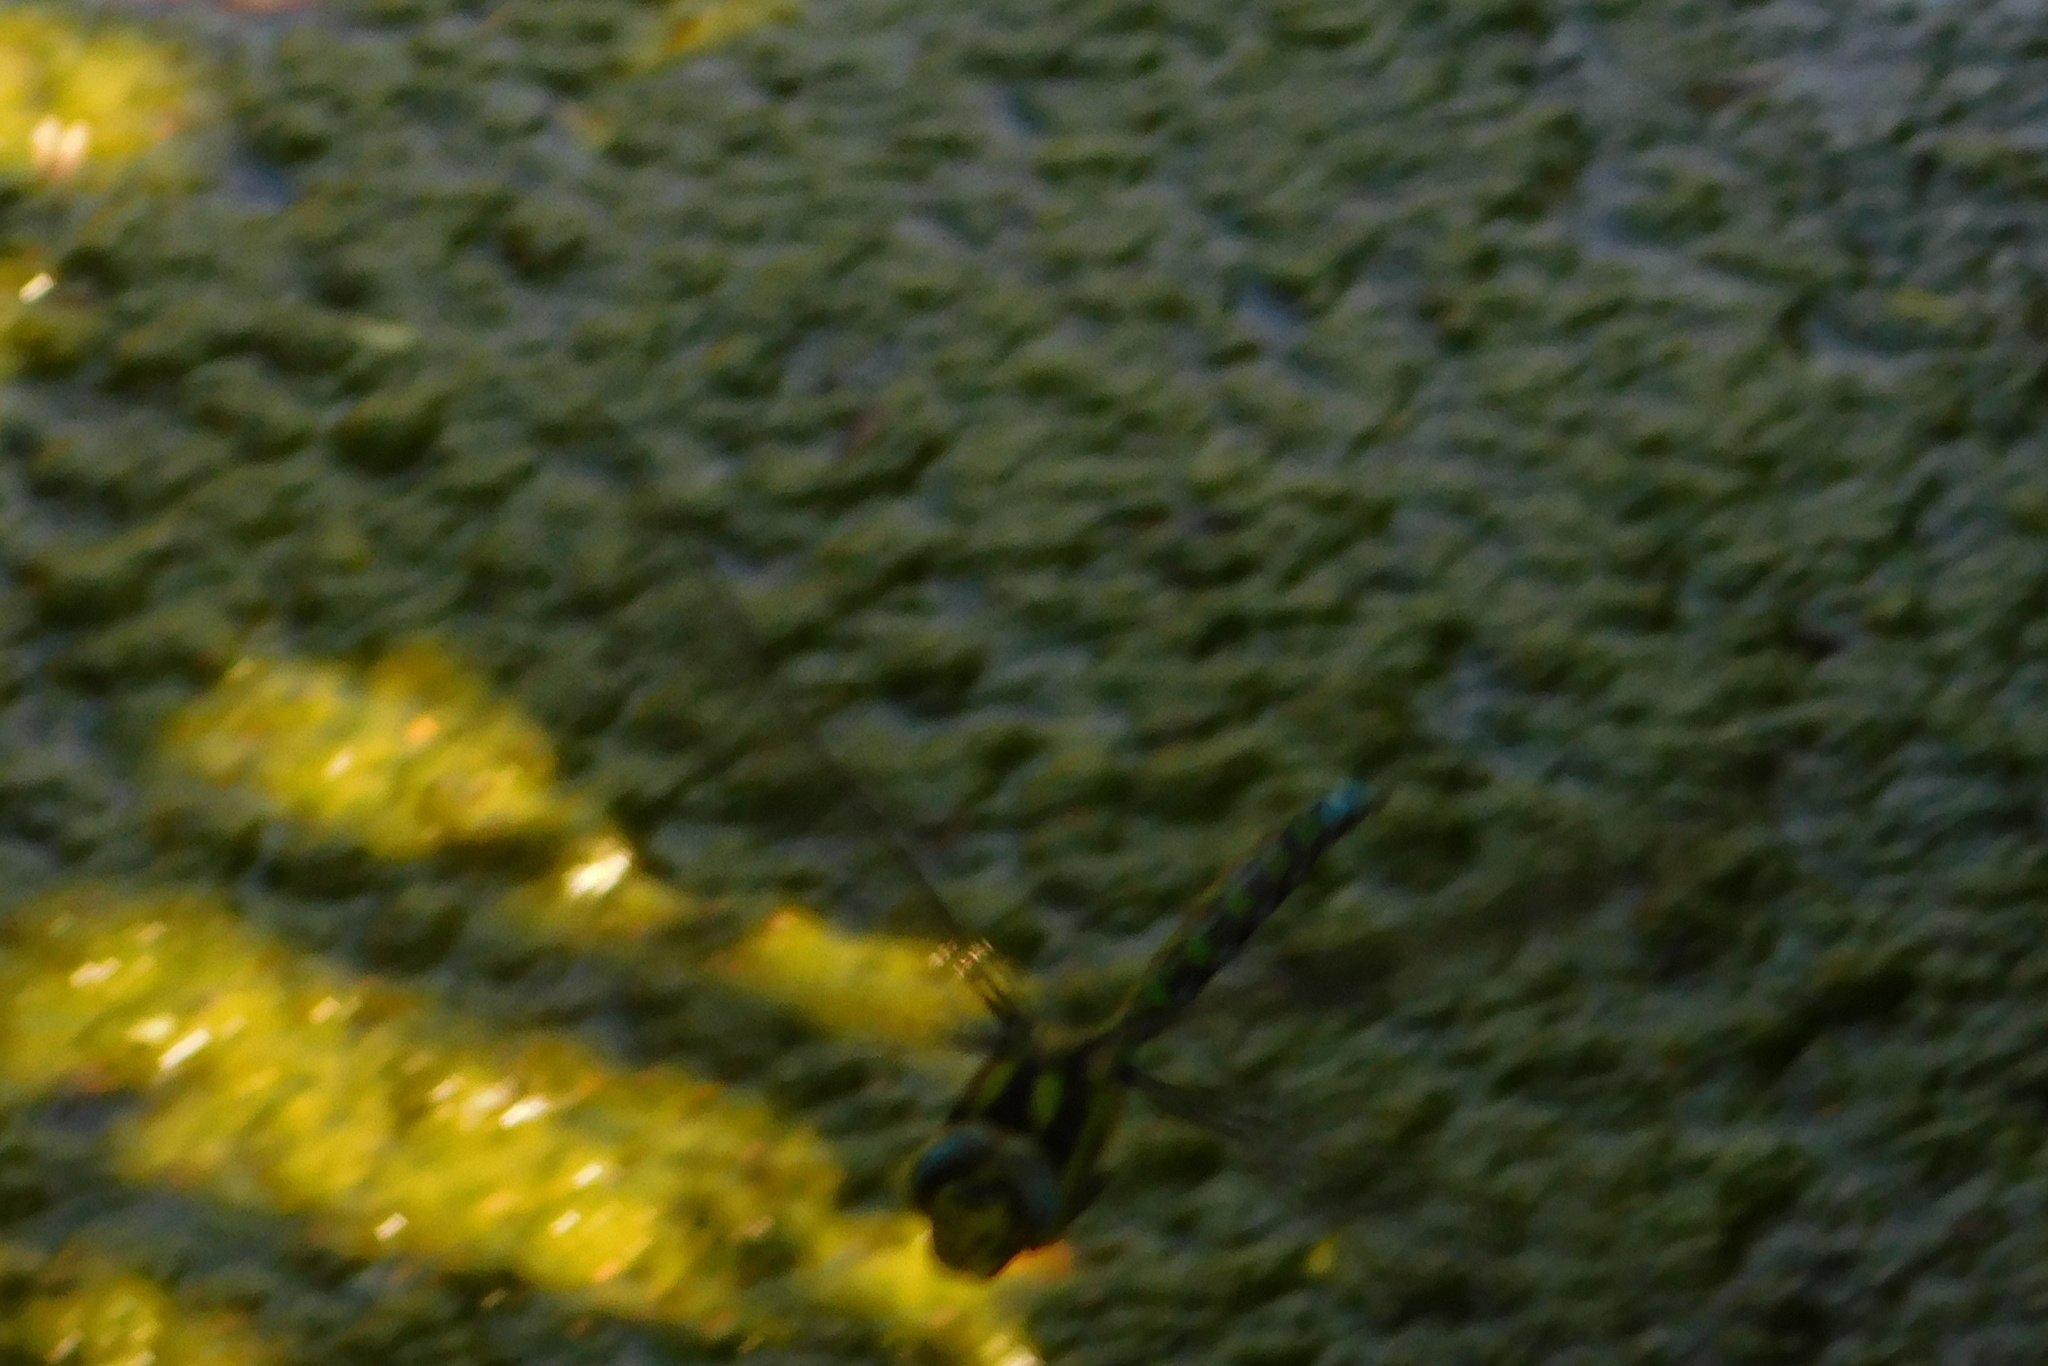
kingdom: Animalia
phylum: Arthropoda
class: Insecta
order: Odonata
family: Aeshnidae
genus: Aeshna
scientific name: Aeshna cyanea
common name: Southern hawker
